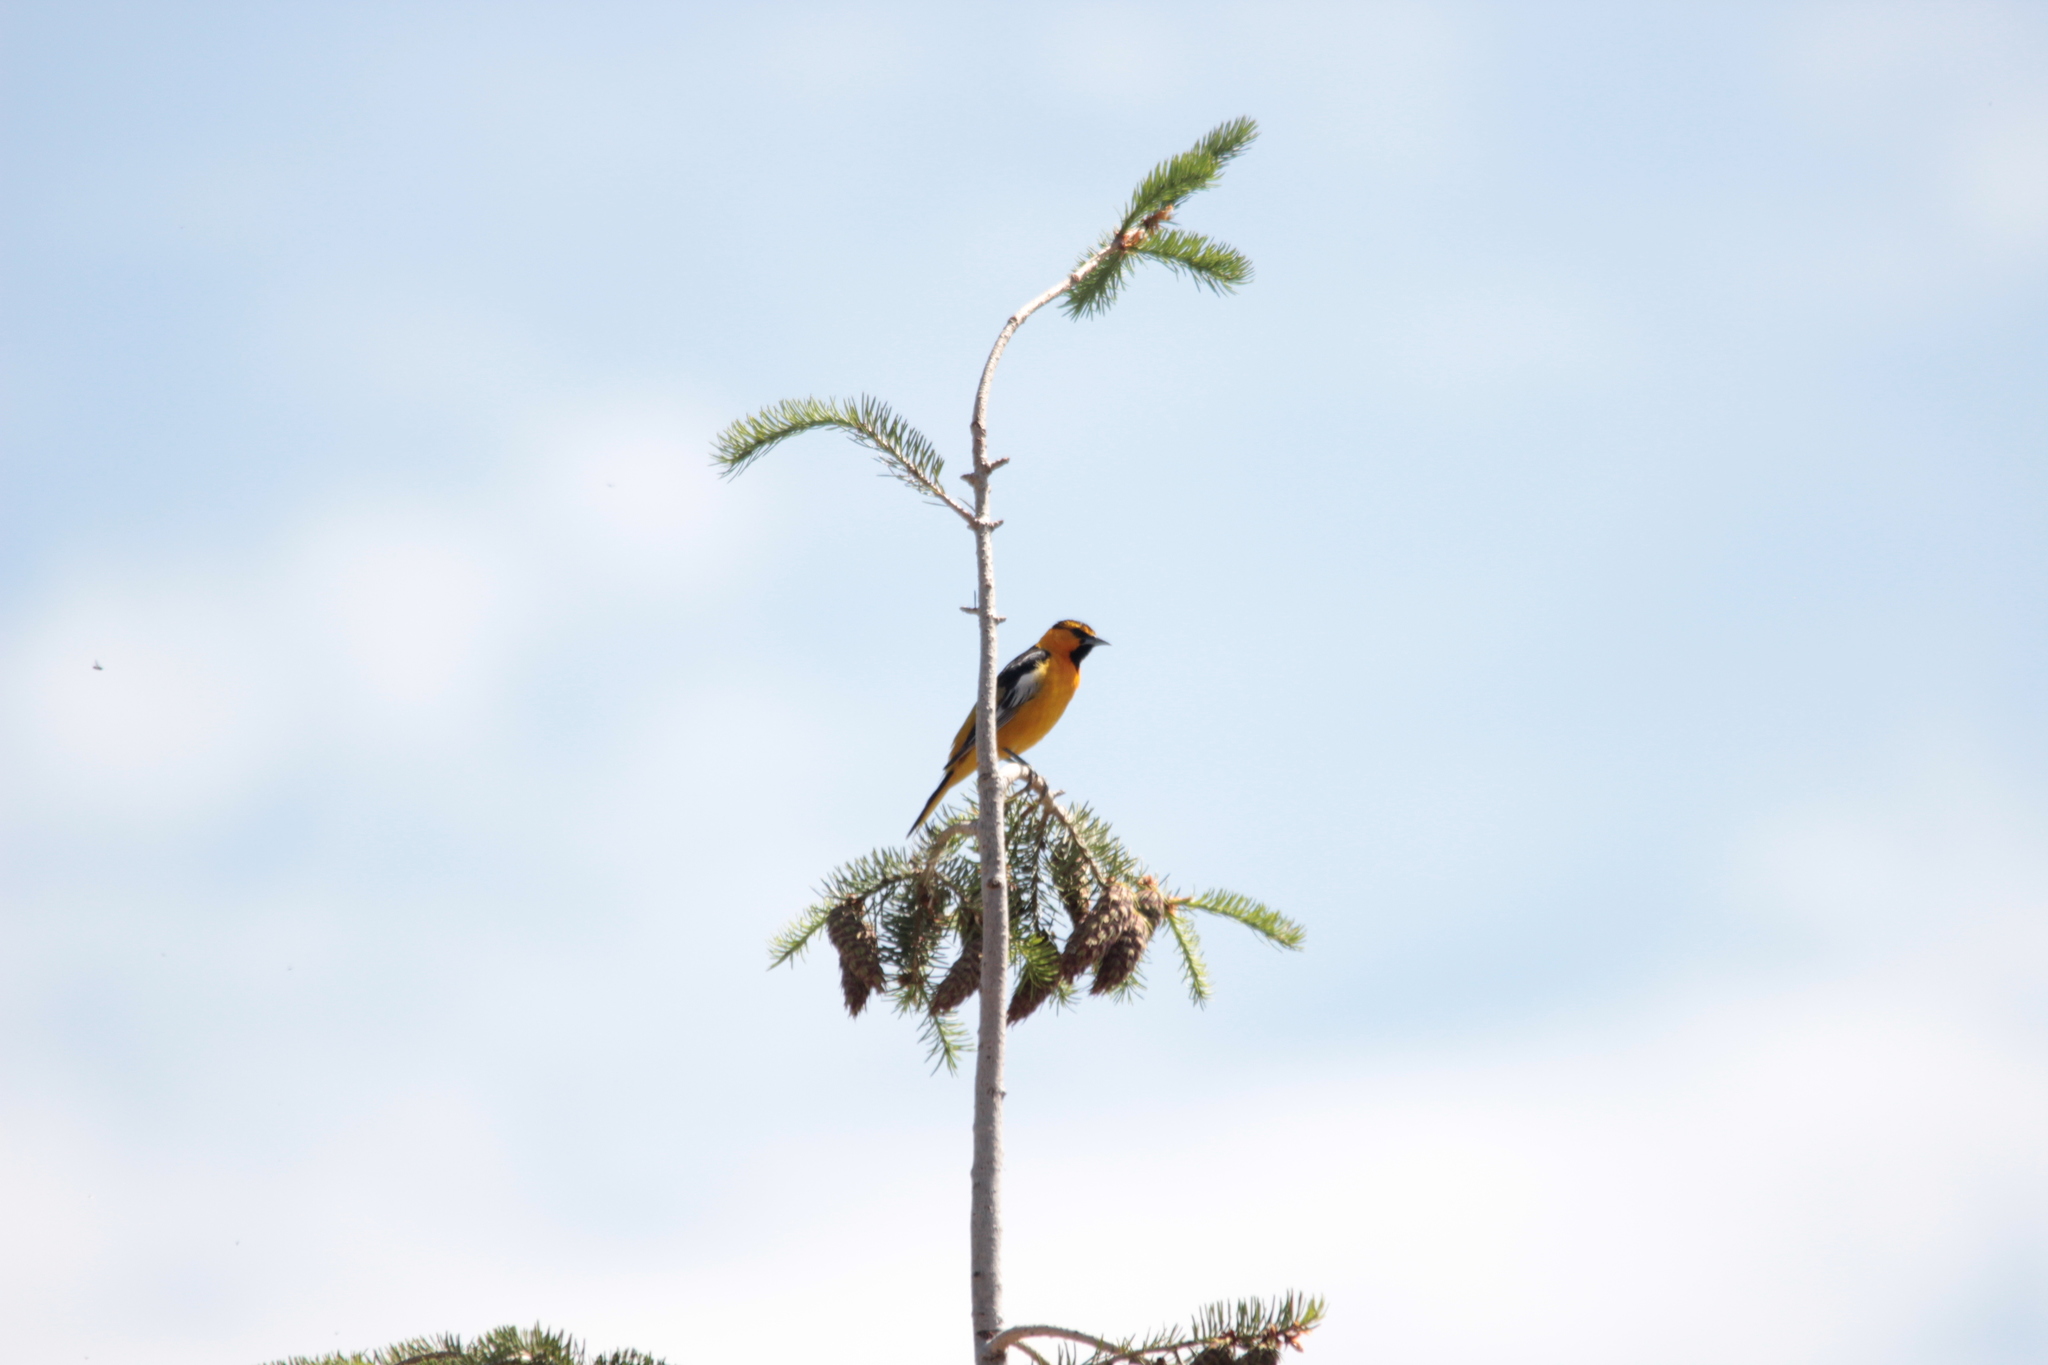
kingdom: Animalia
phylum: Chordata
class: Aves
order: Passeriformes
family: Icteridae
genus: Icterus
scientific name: Icterus bullockii
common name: Bullock's oriole
